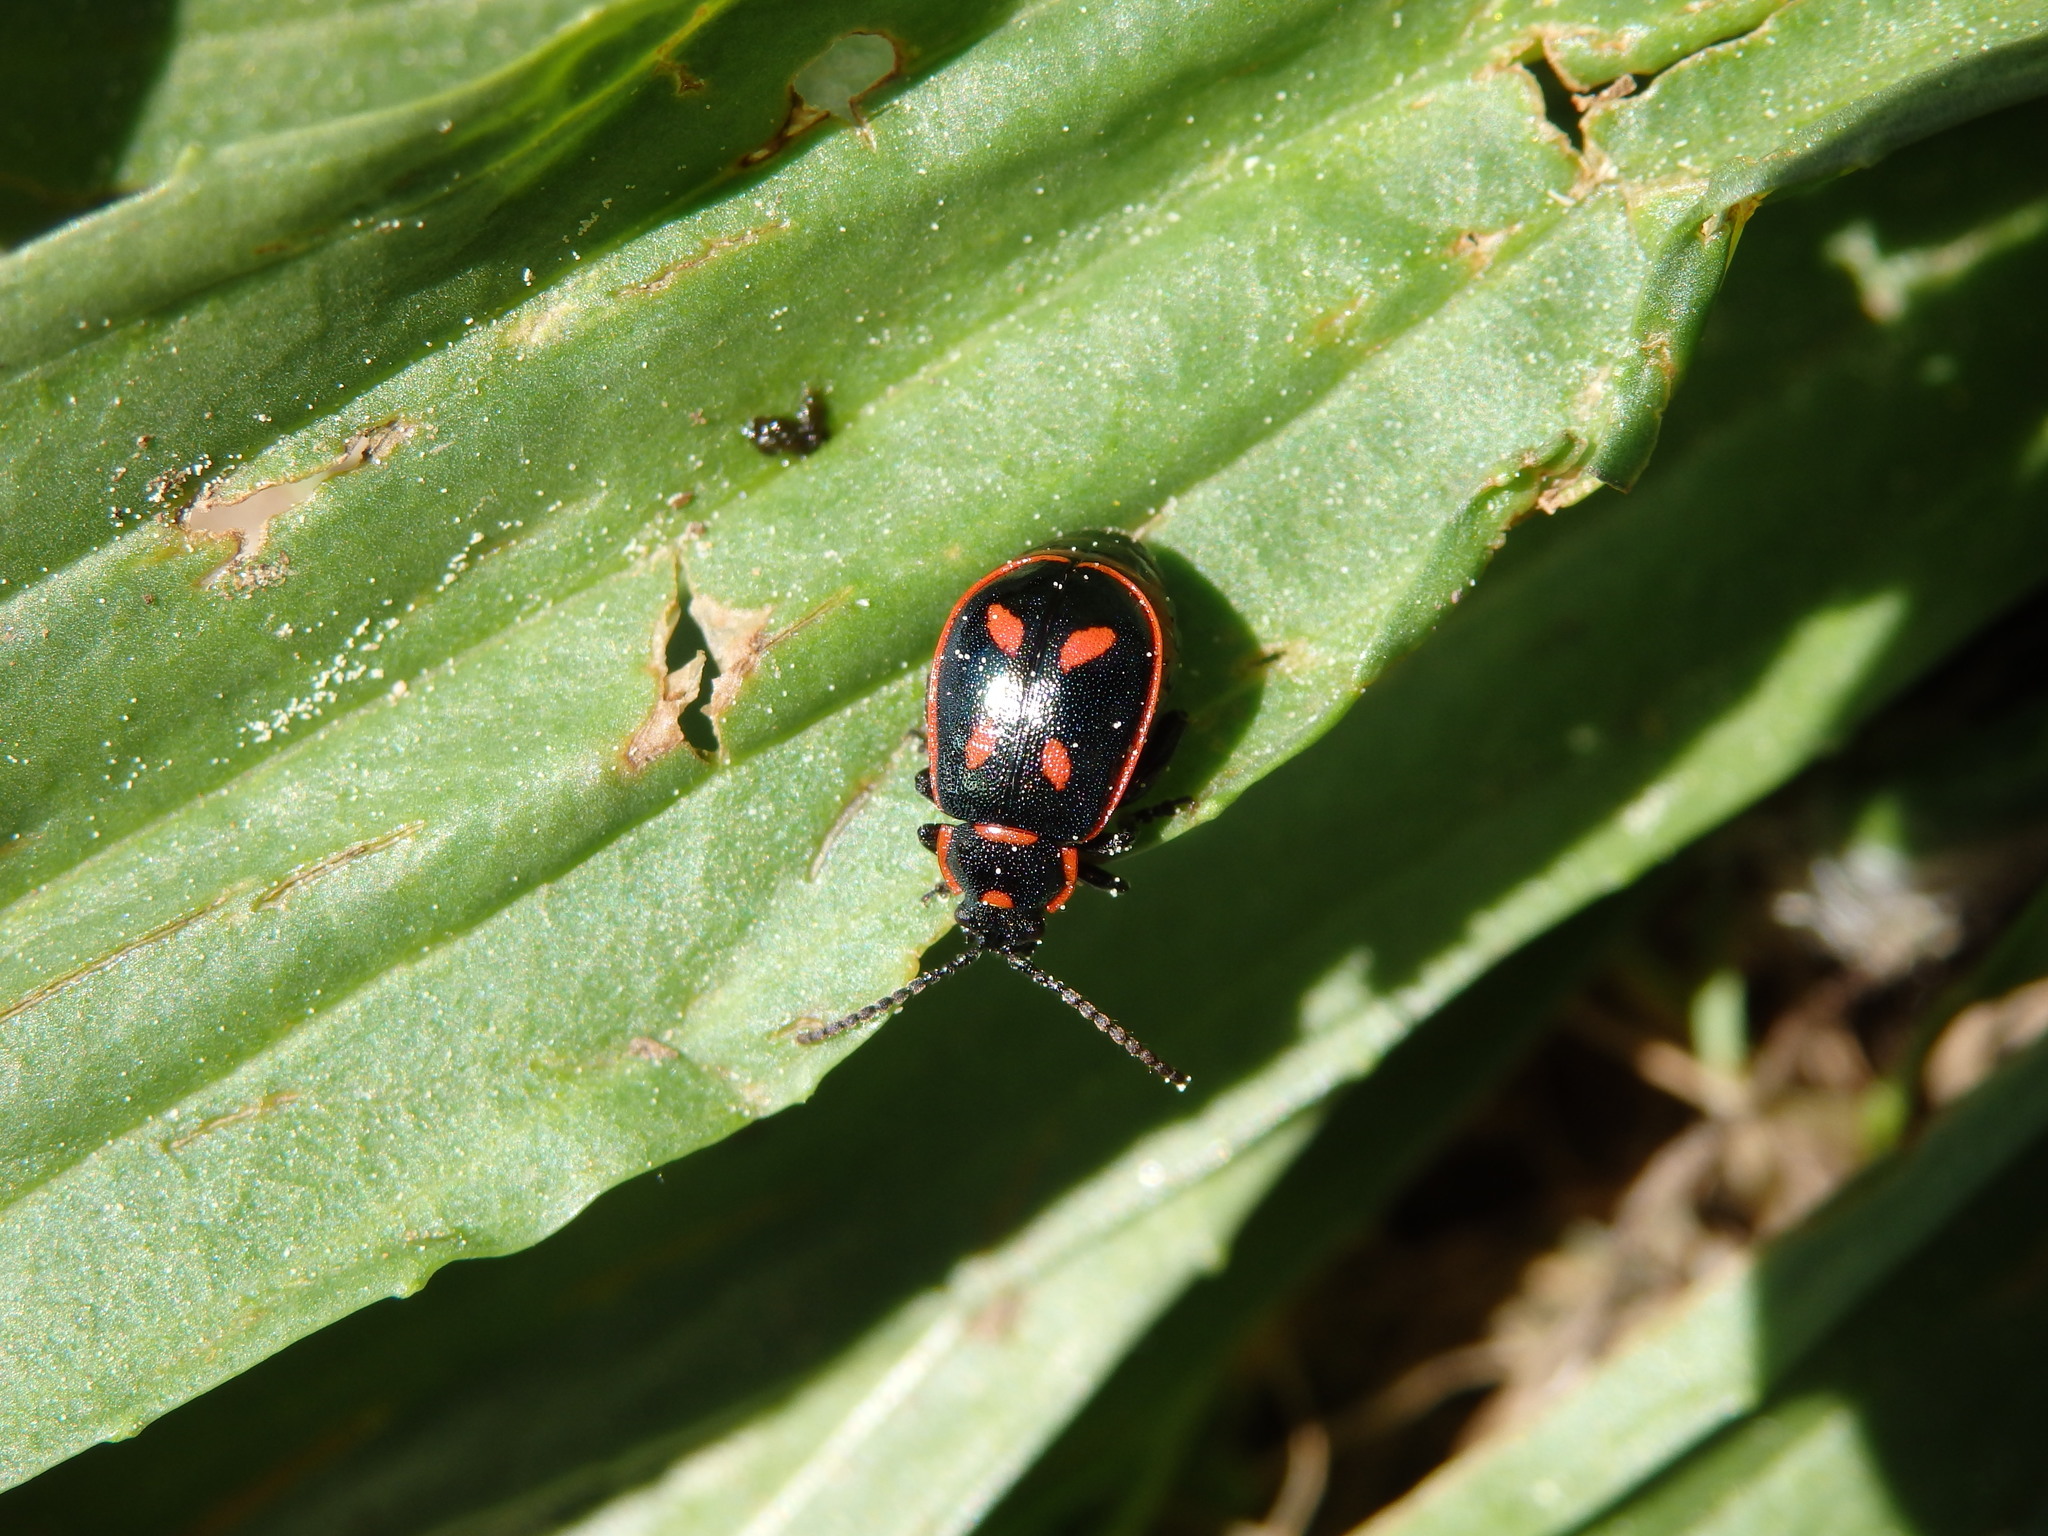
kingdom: Animalia
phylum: Arthropoda
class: Insecta
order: Coleoptera
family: Chrysomelidae
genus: Oedionychis
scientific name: Oedionychis cincta
